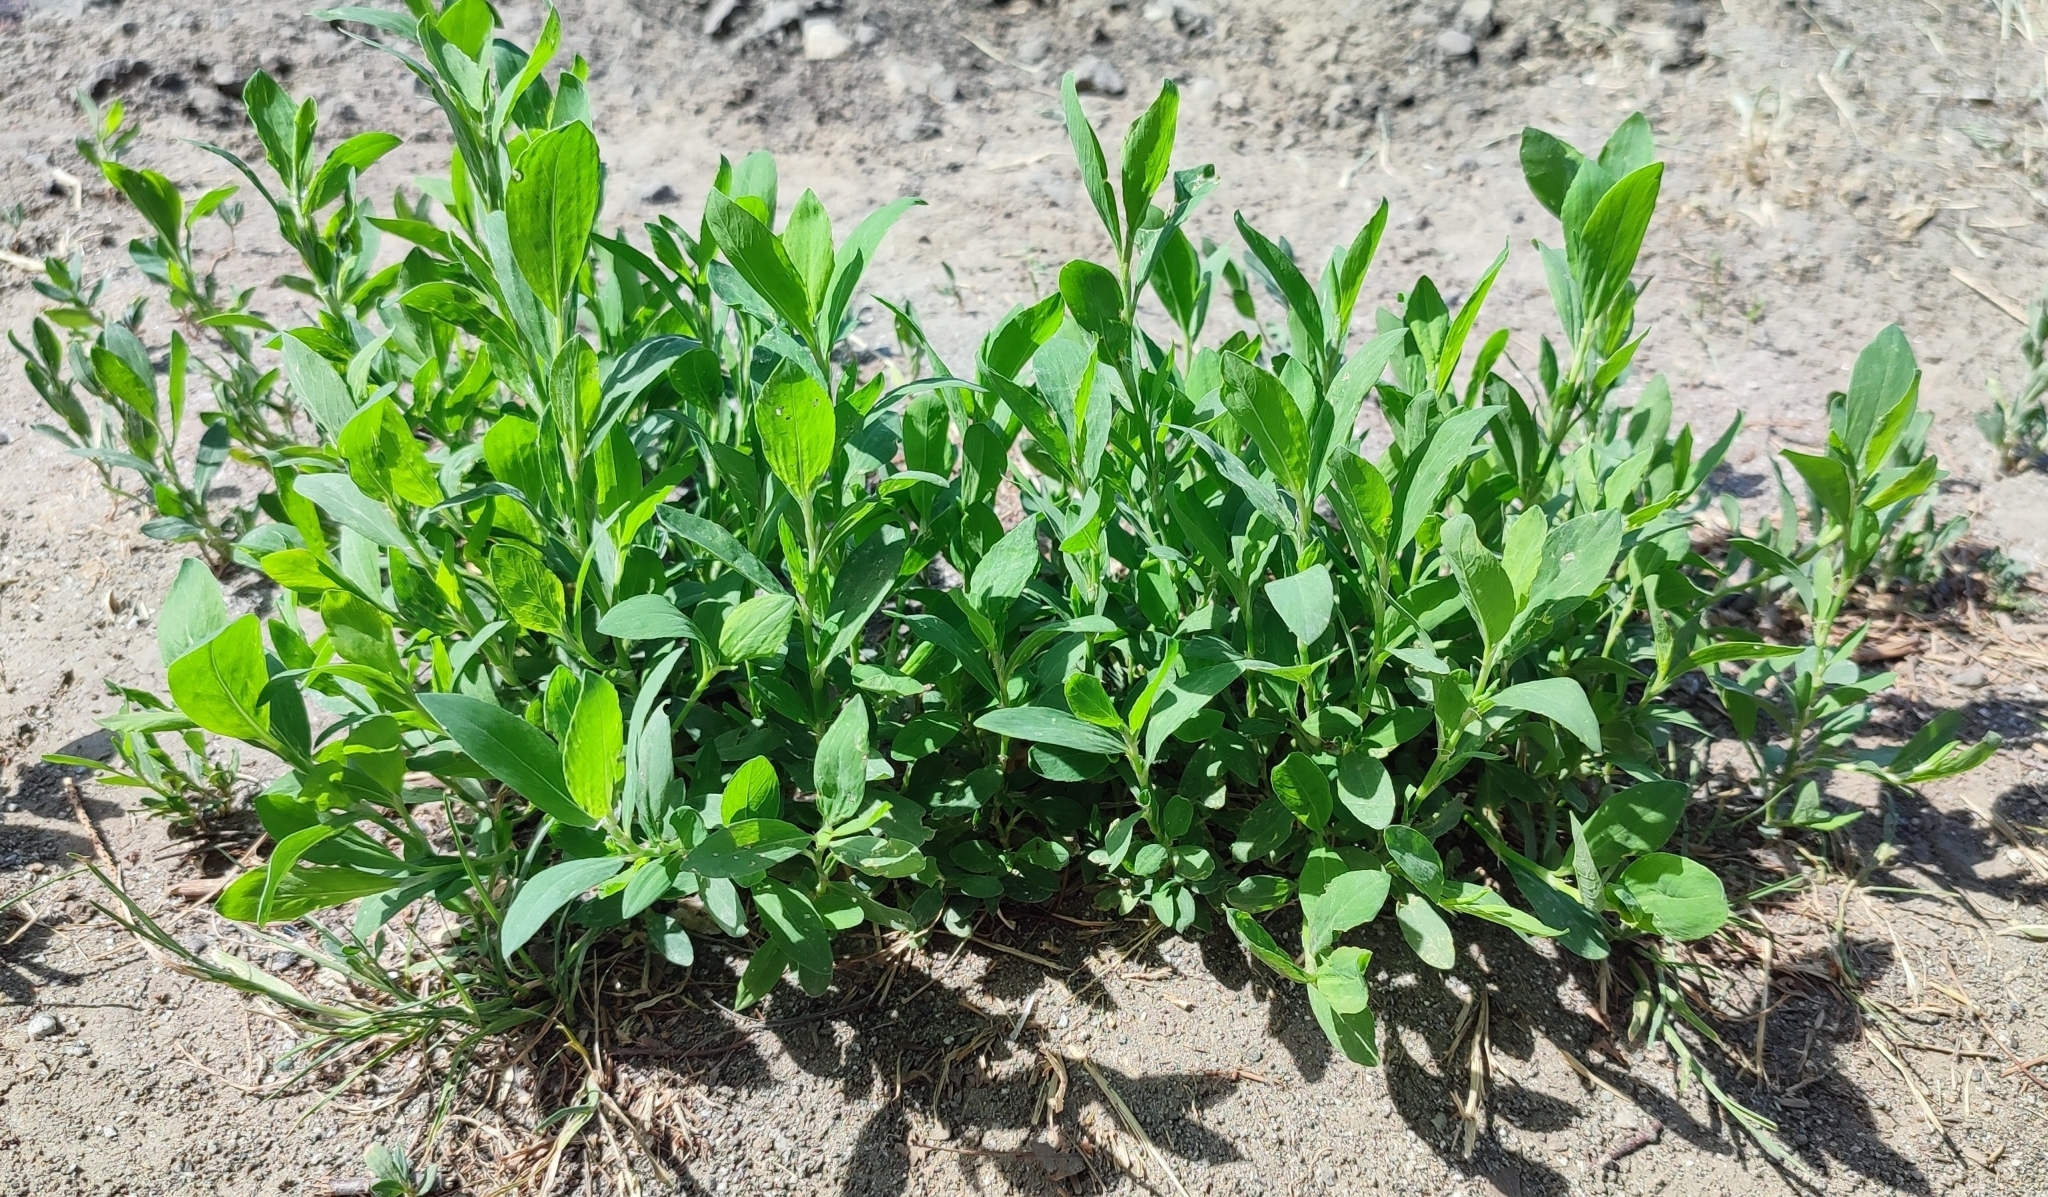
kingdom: Plantae
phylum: Tracheophyta
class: Magnoliopsida
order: Caryophyllales
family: Polygonaceae
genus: Polygonum
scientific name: Polygonum
